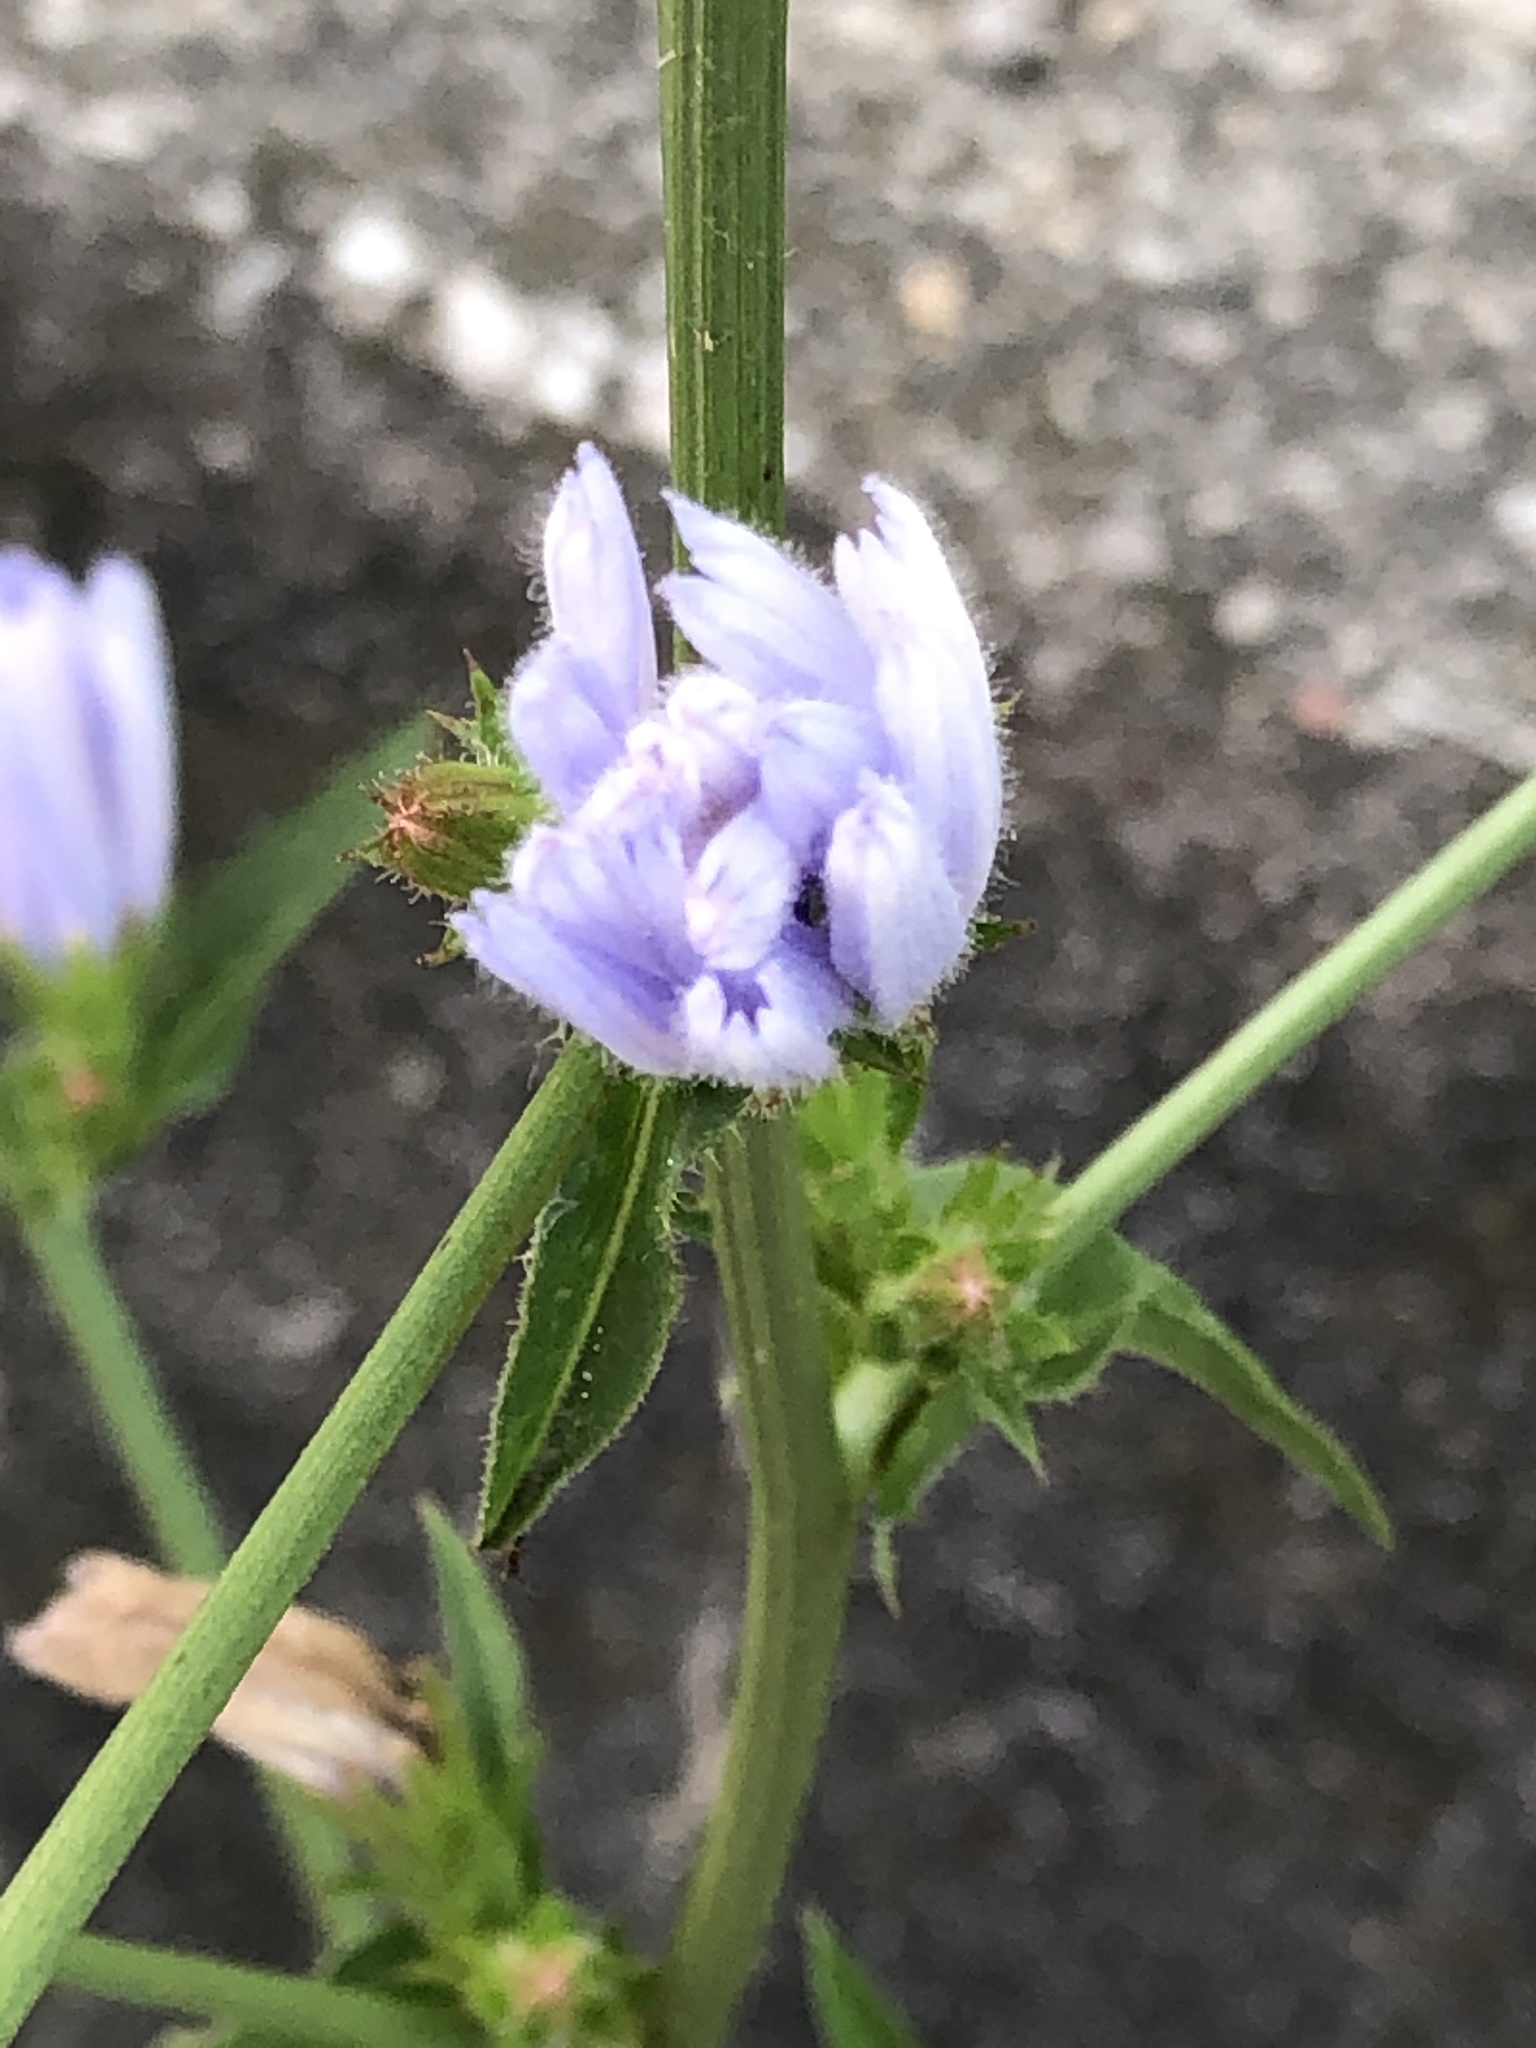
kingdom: Plantae
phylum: Tracheophyta
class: Magnoliopsida
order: Asterales
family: Asteraceae
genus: Cichorium
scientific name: Cichorium intybus
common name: Chicory
